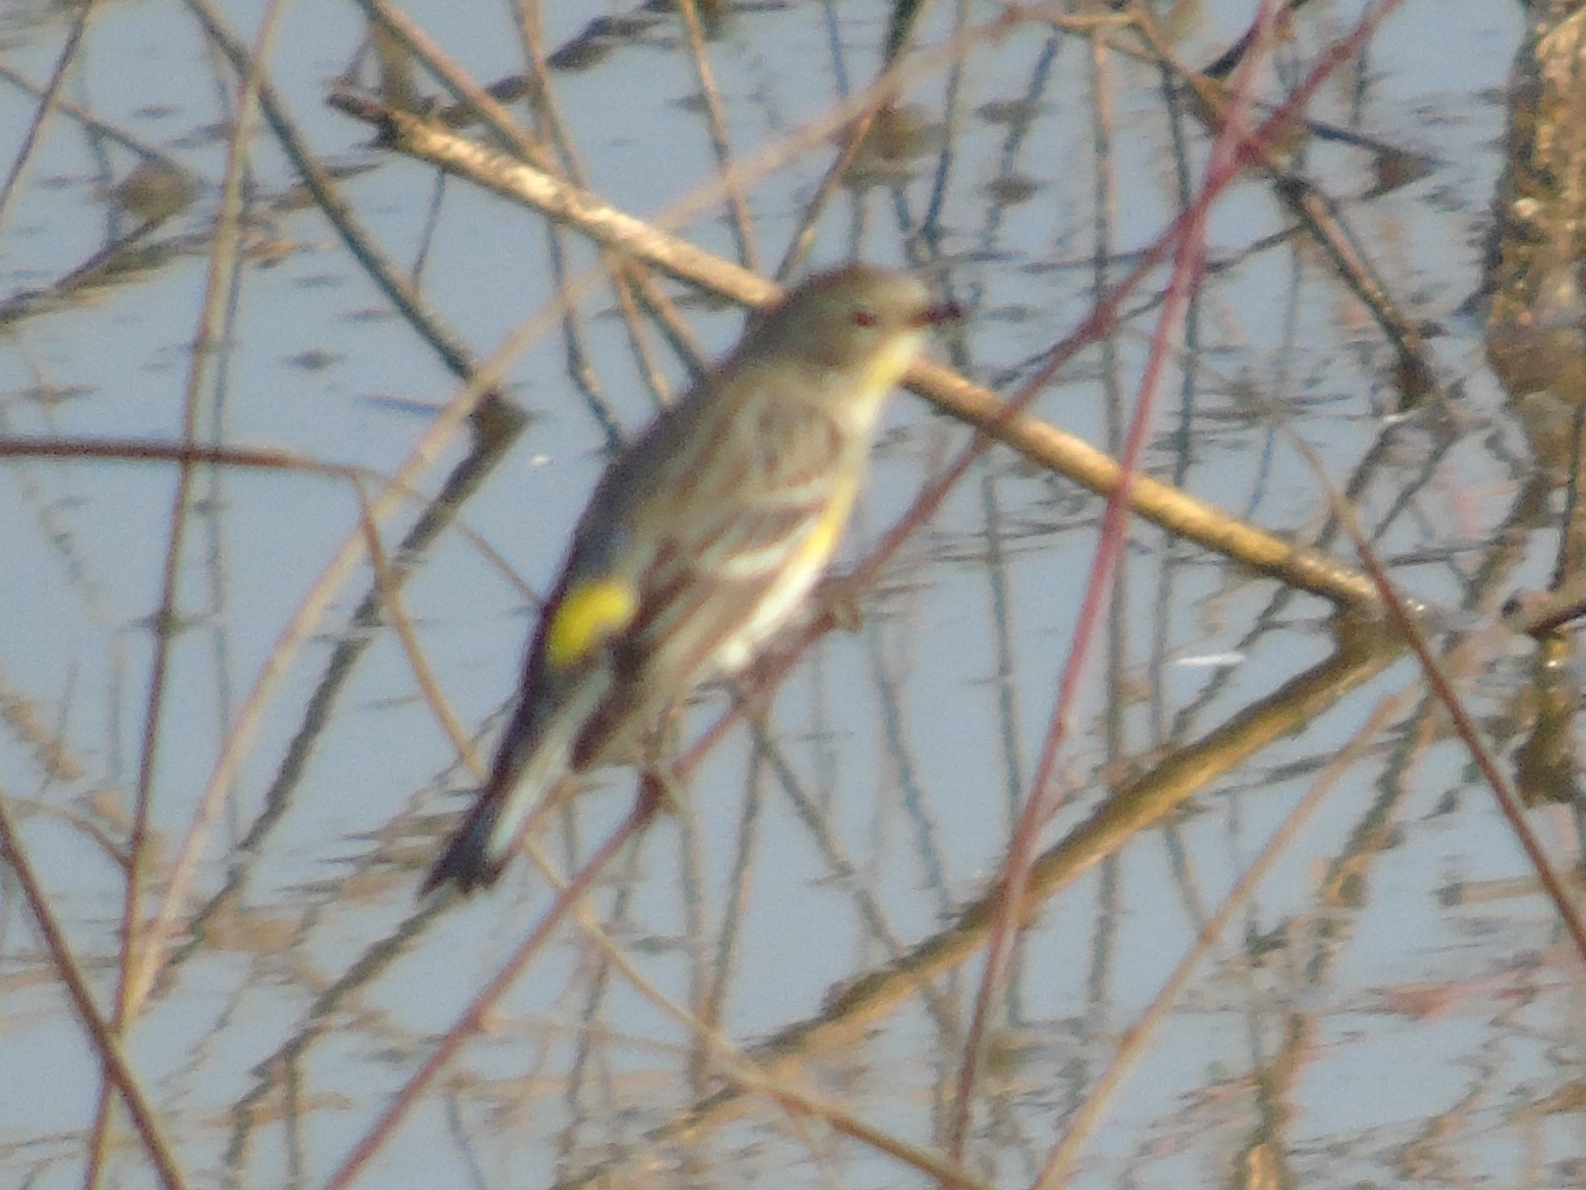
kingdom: Animalia
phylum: Chordata
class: Aves
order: Passeriformes
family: Parulidae
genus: Setophaga
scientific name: Setophaga coronata
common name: Myrtle warbler
